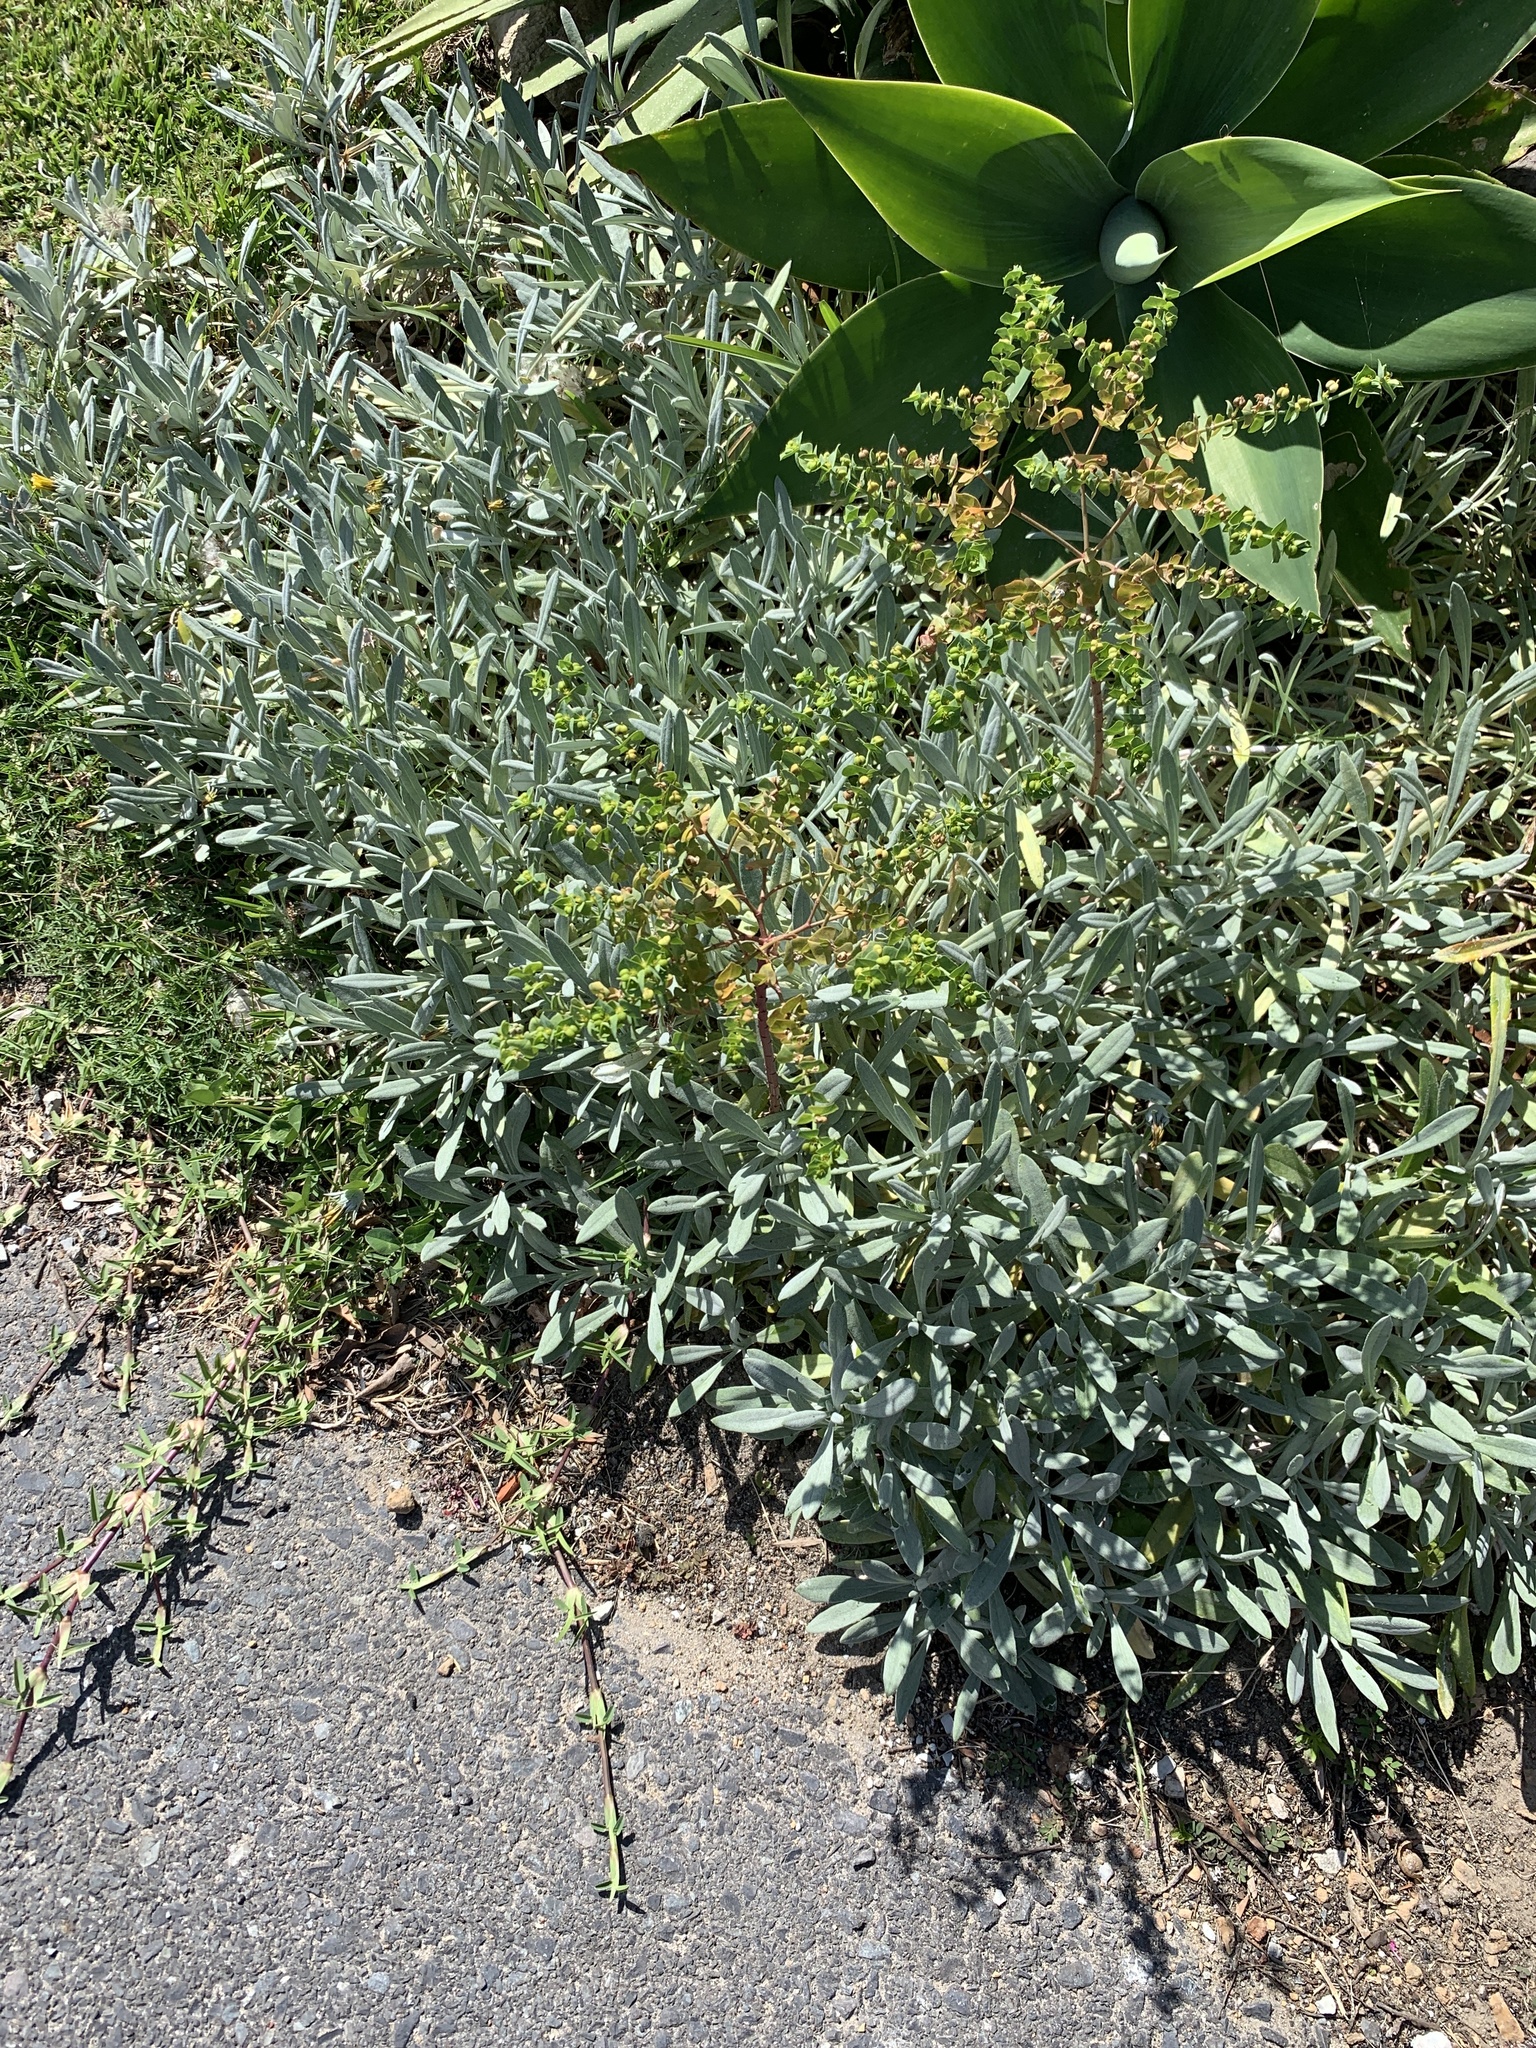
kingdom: Plantae
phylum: Tracheophyta
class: Magnoliopsida
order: Malpighiales
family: Euphorbiaceae
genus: Euphorbia
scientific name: Euphorbia terracina
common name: Geraldton carnation weed
